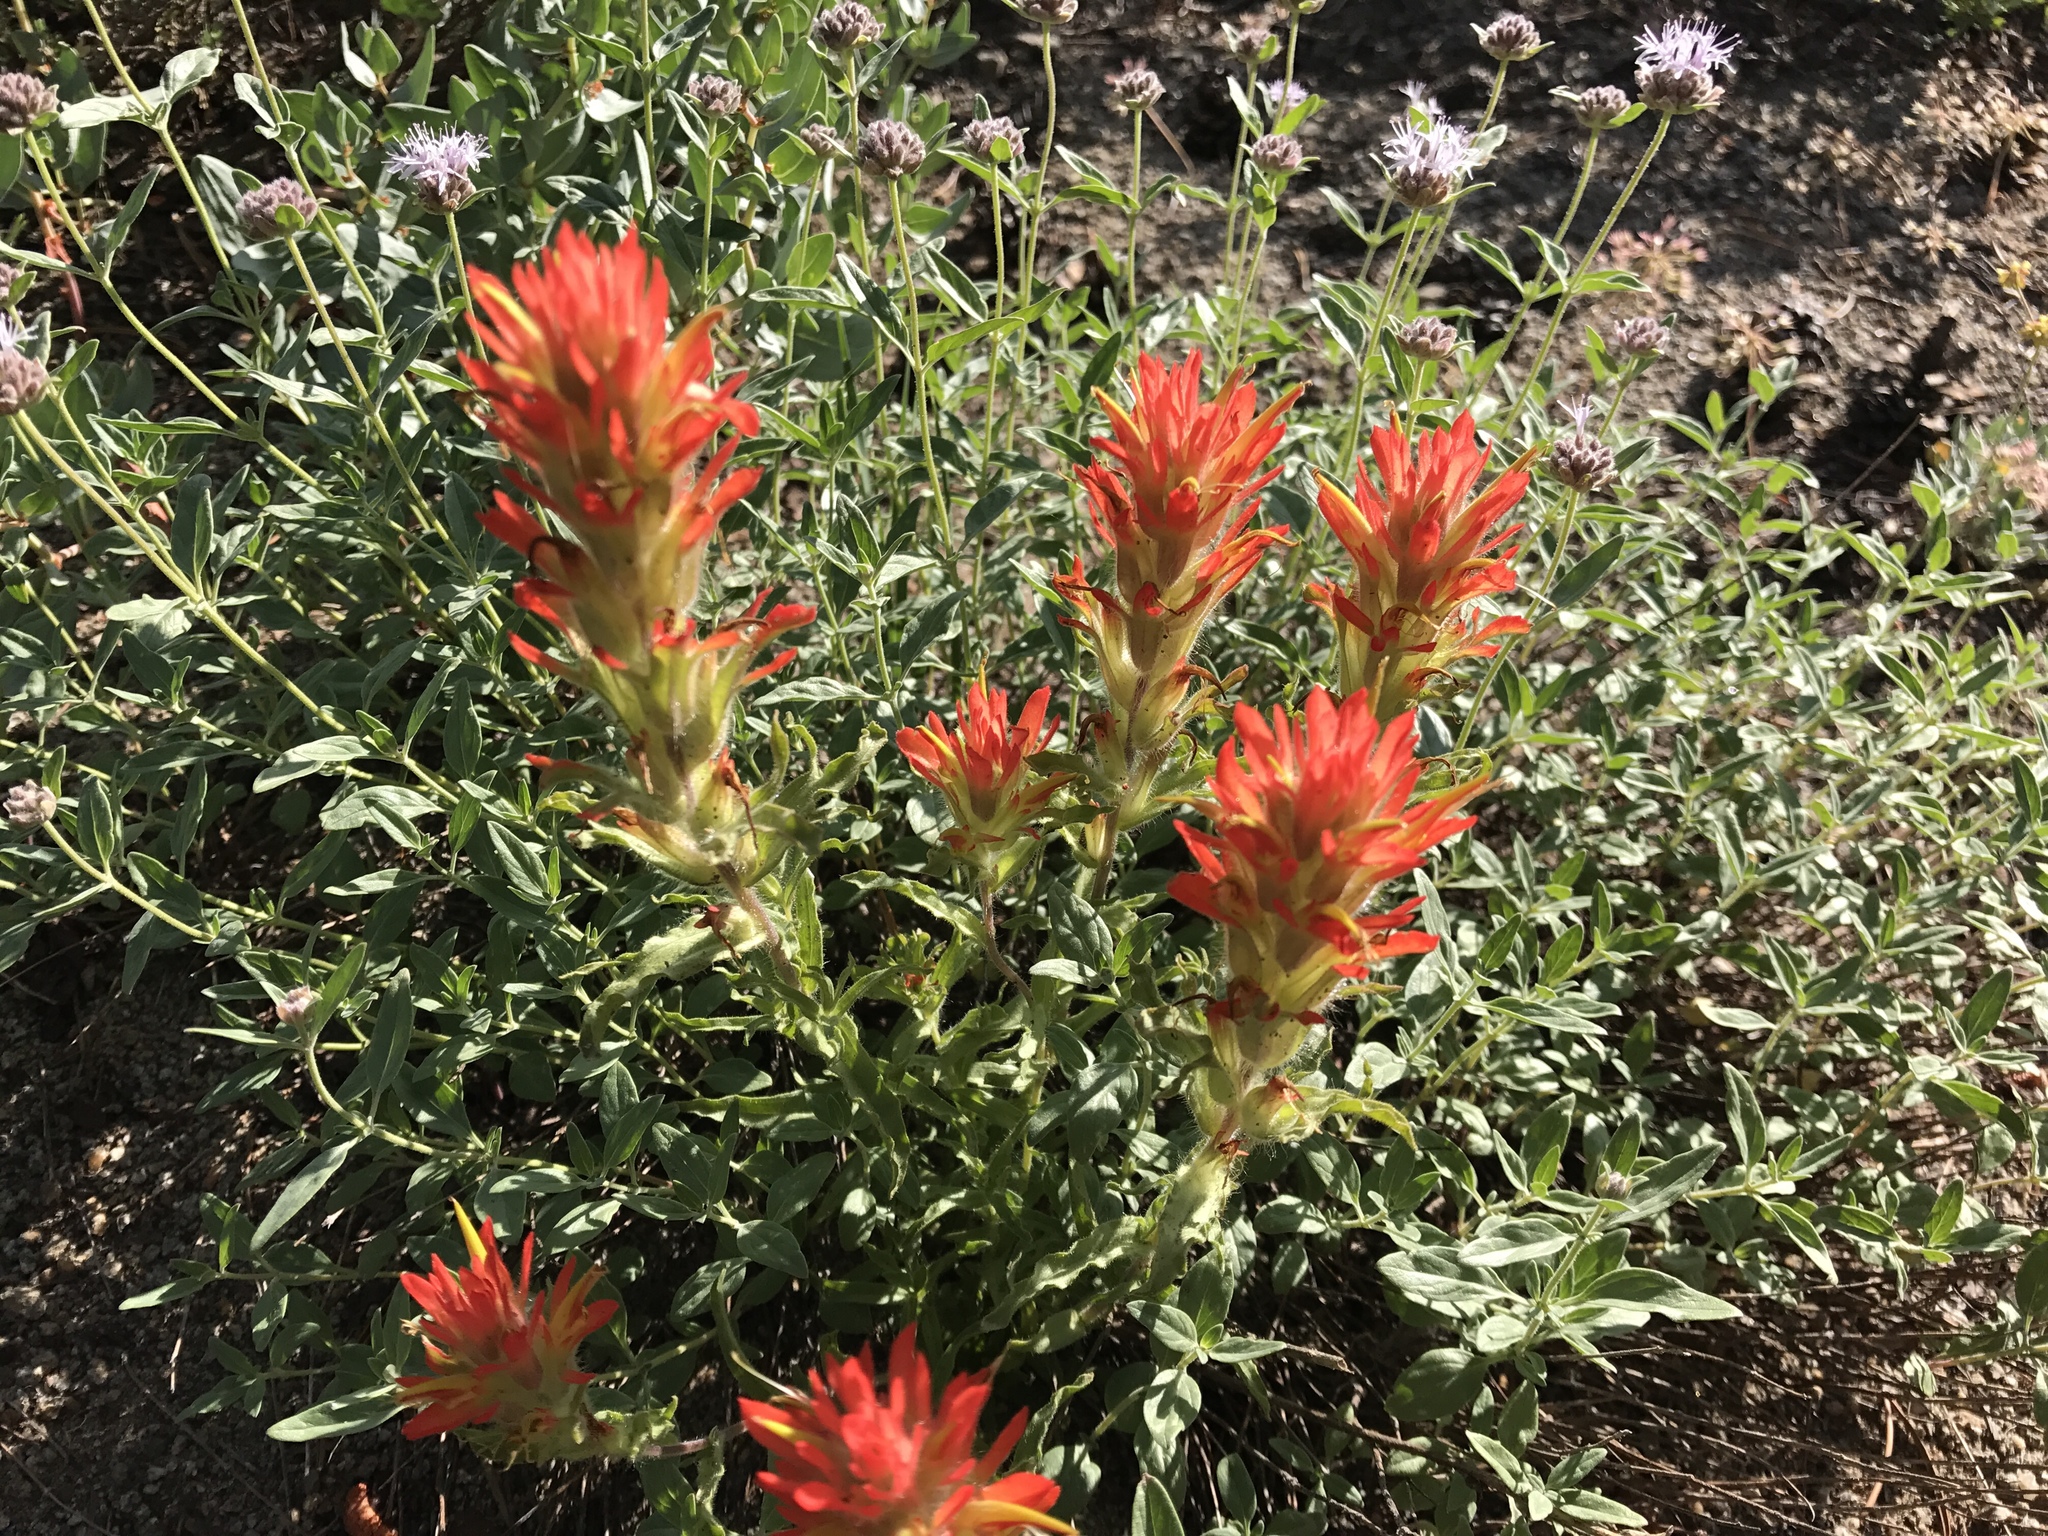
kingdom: Plantae
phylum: Tracheophyta
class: Magnoliopsida
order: Lamiales
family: Orobanchaceae
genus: Castilleja
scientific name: Castilleja applegatei
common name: Wavy-leaf paintbrush
